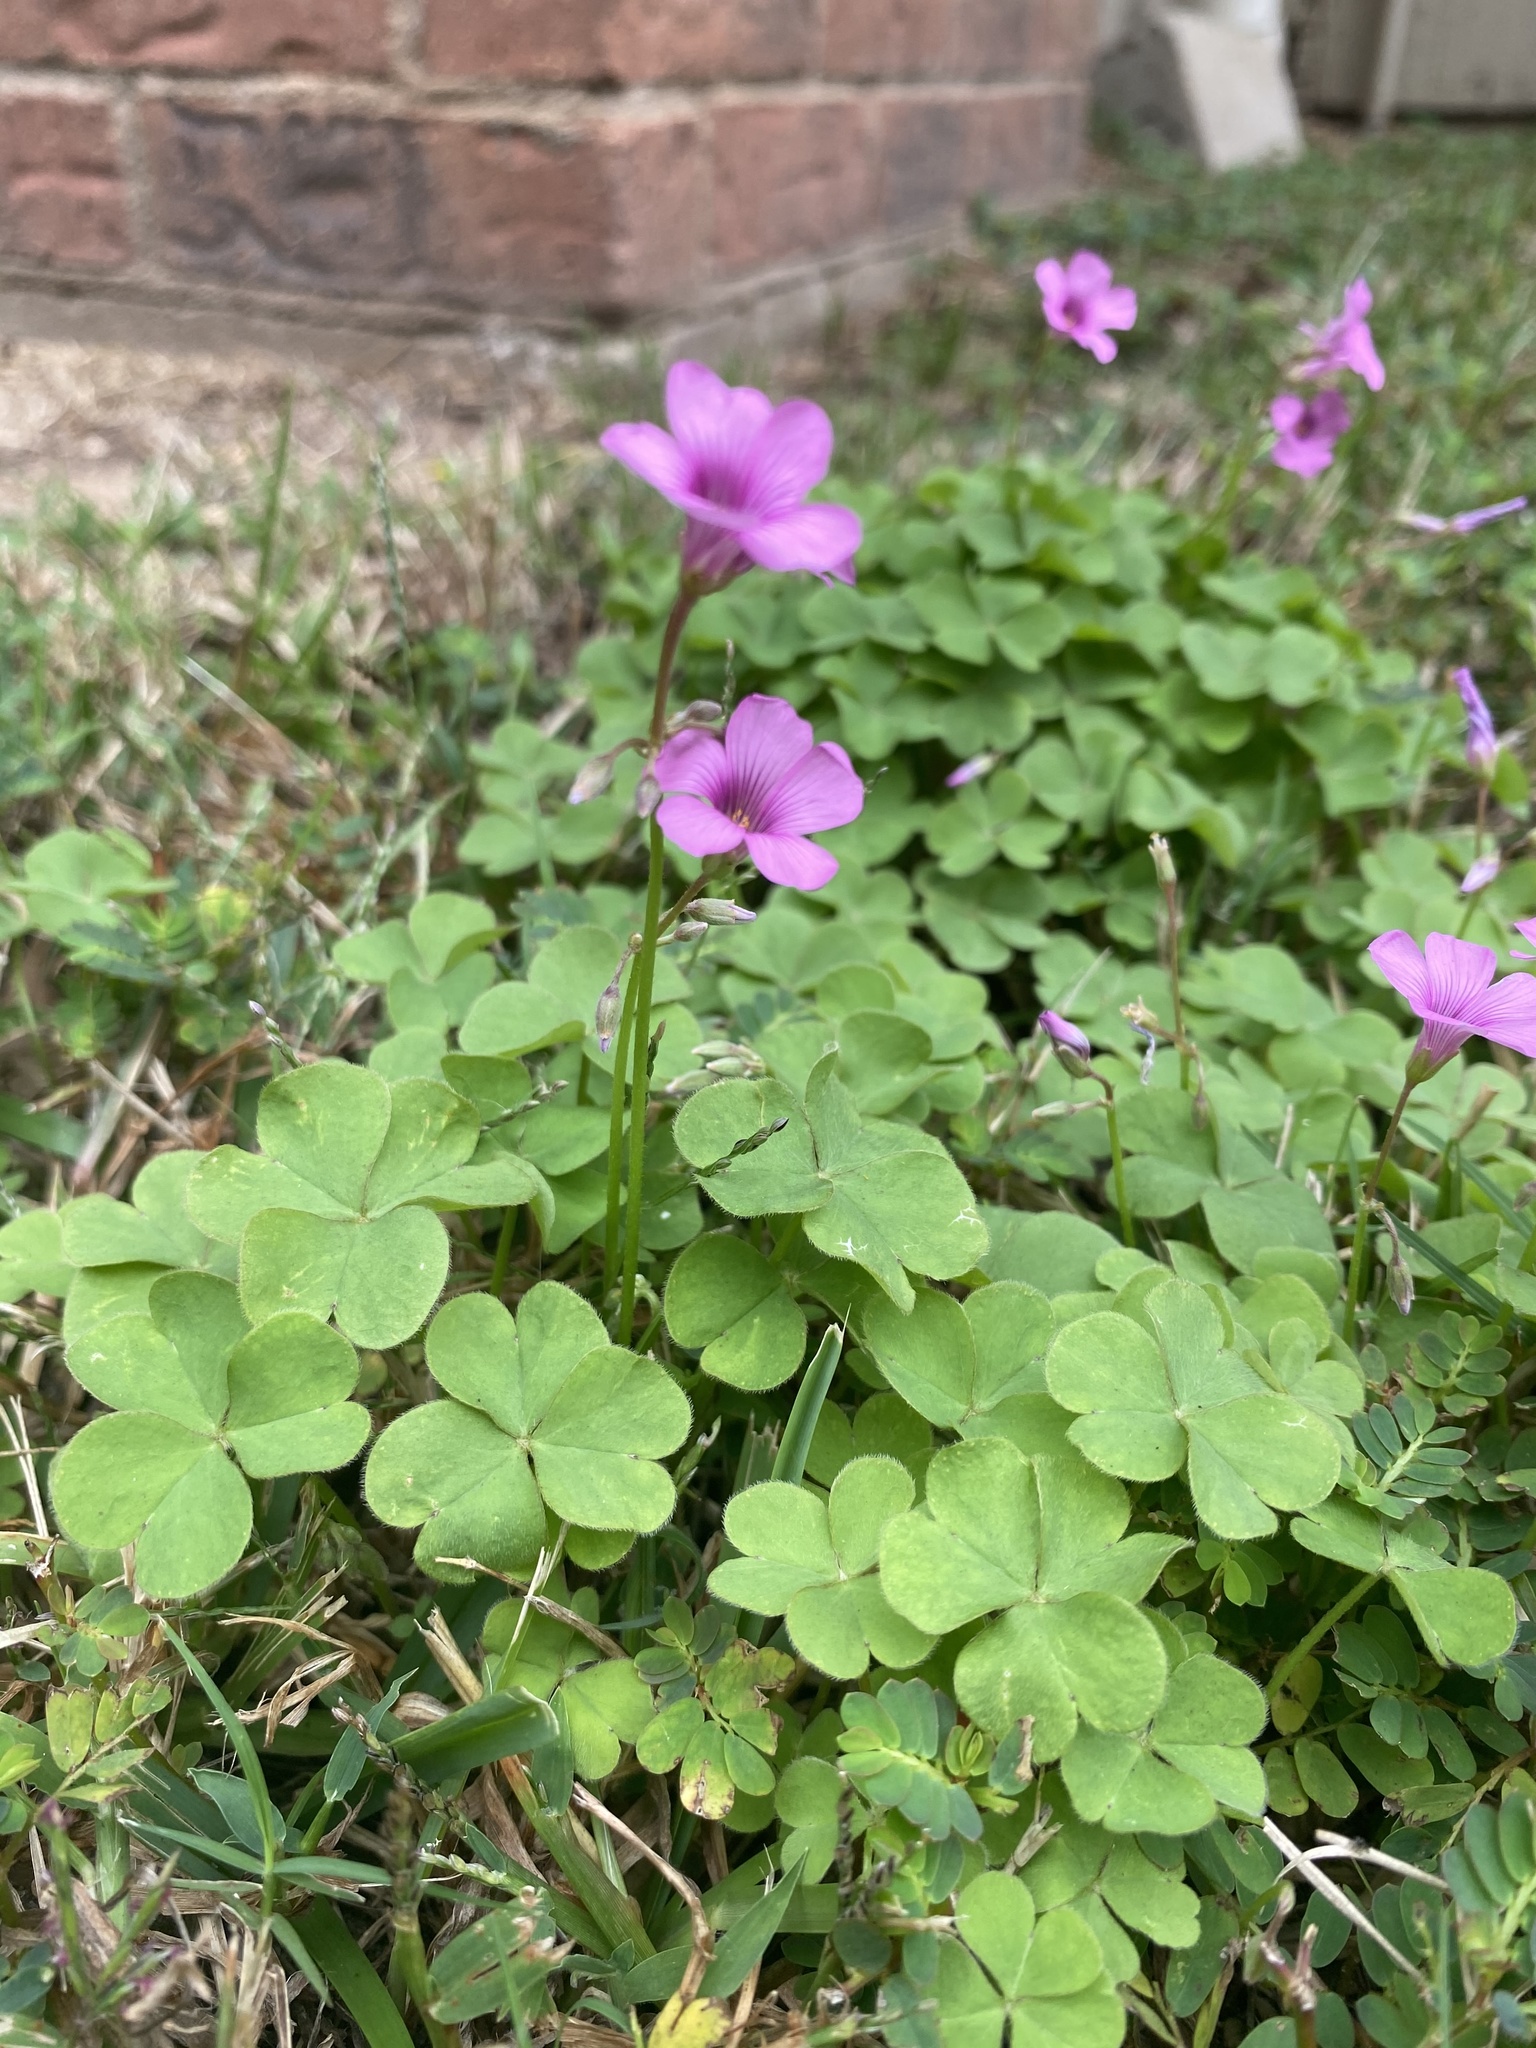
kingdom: Plantae
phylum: Tracheophyta
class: Magnoliopsida
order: Oxalidales
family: Oxalidaceae
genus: Oxalis
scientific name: Oxalis articulata
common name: Pink-sorrel
